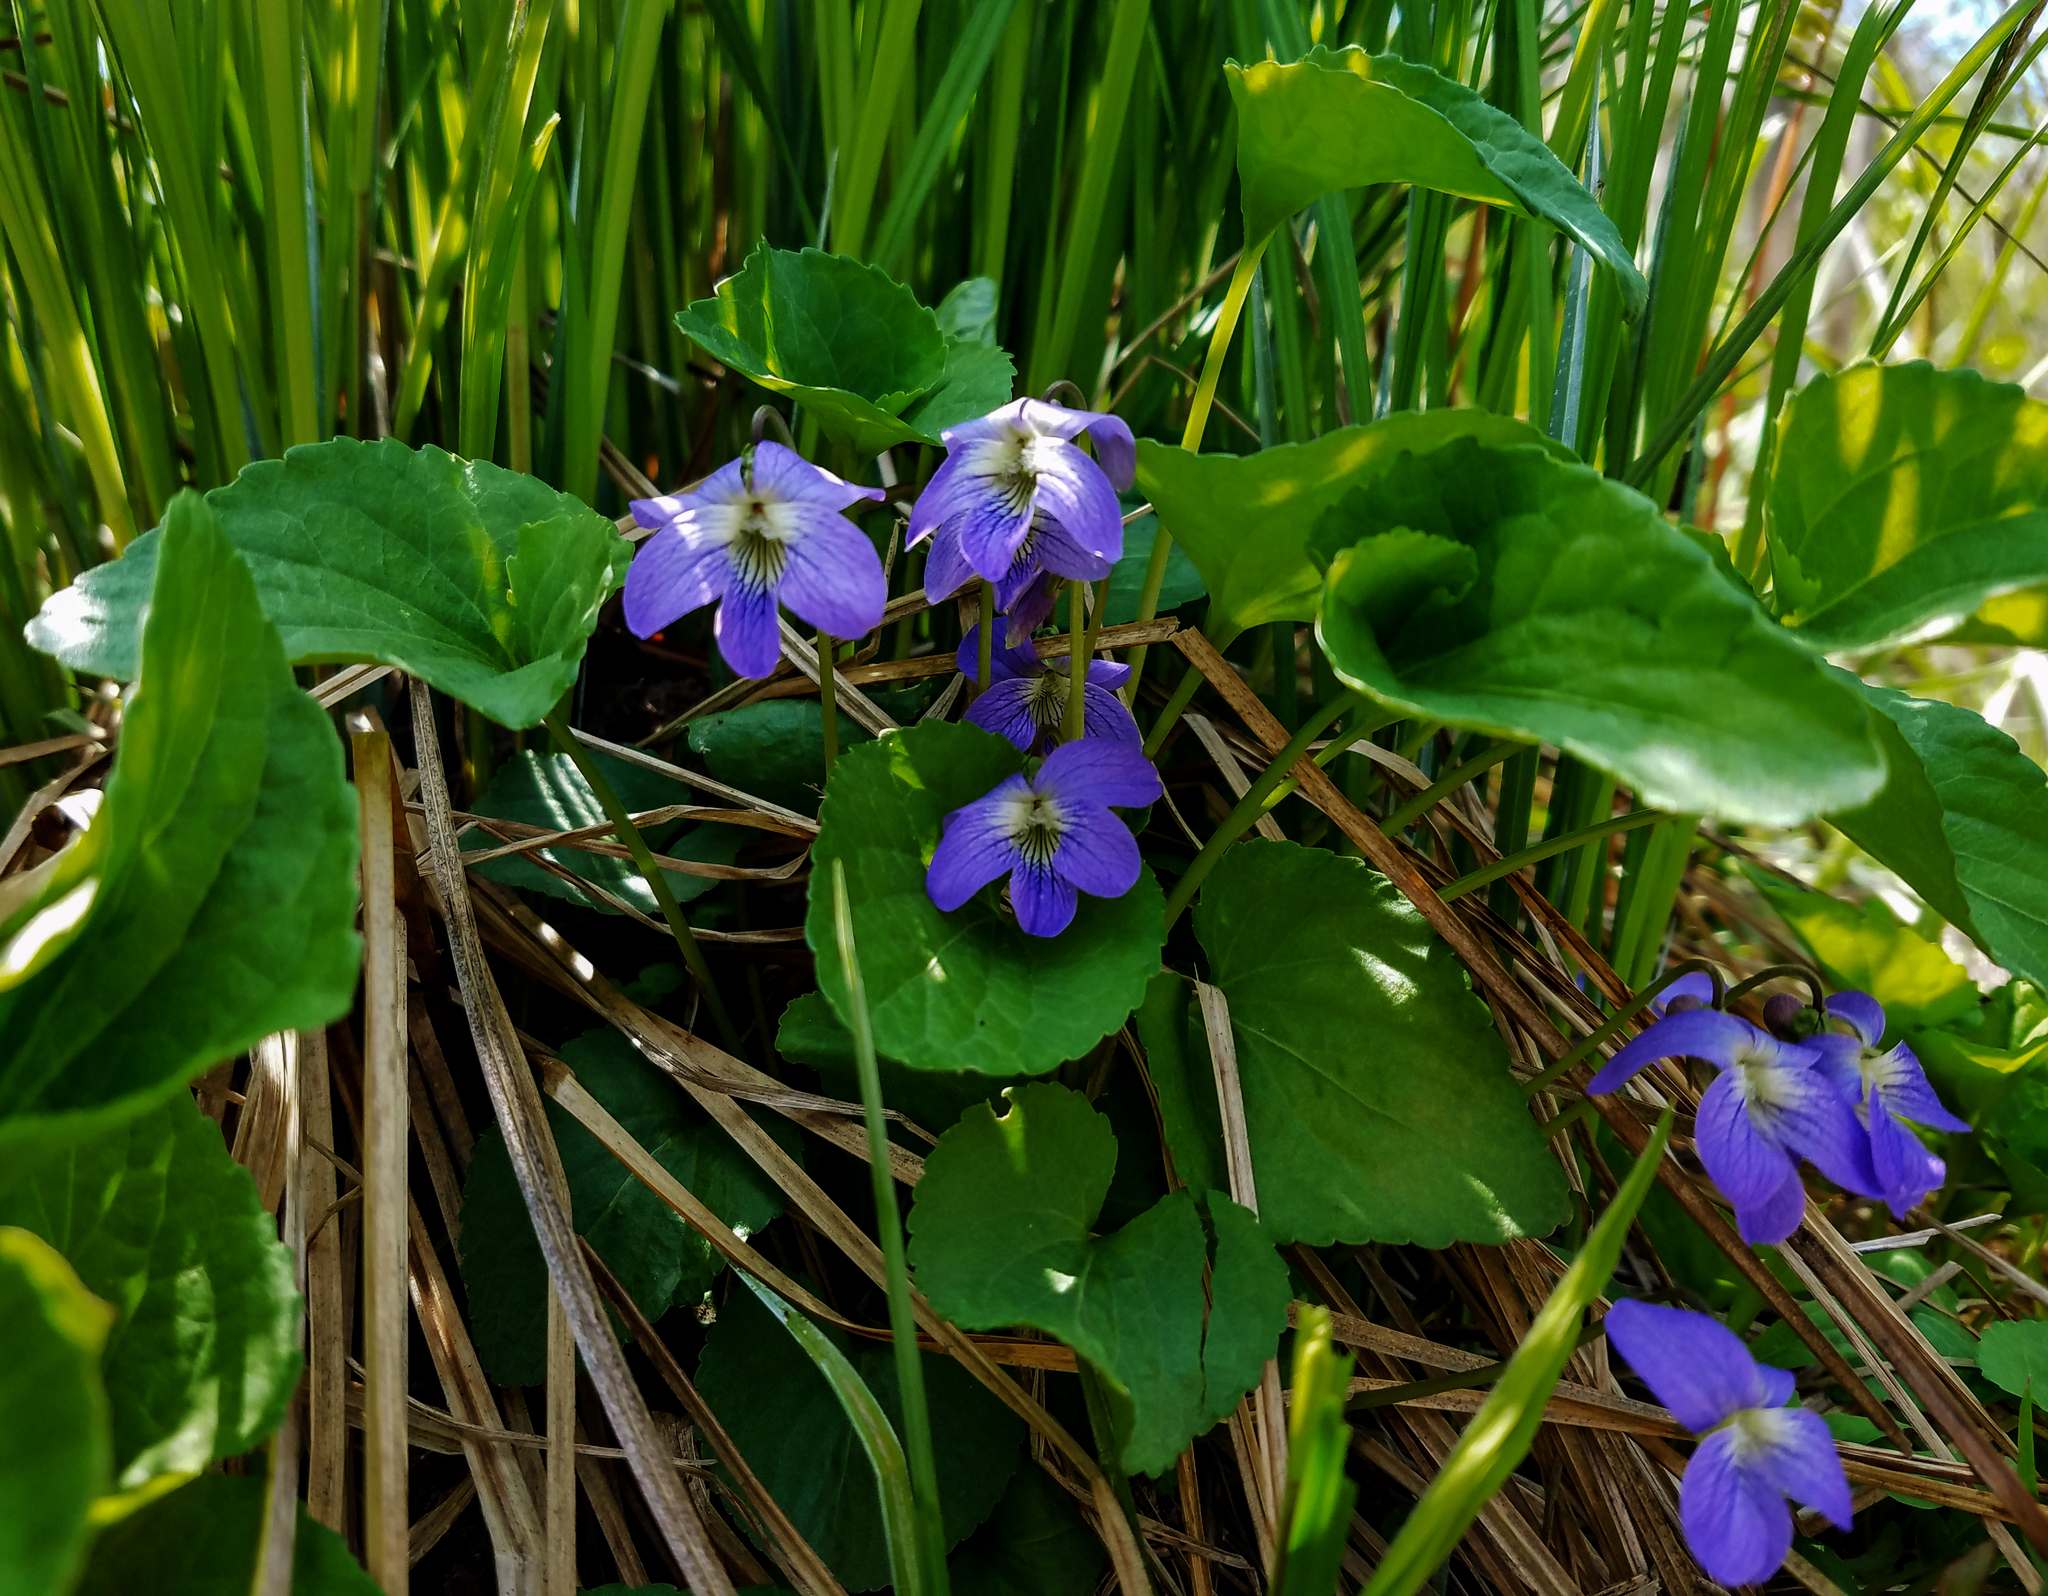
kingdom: Plantae
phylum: Tracheophyta
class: Magnoliopsida
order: Malpighiales
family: Violaceae
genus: Viola
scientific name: Viola cucullata
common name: Marsh blue violet
